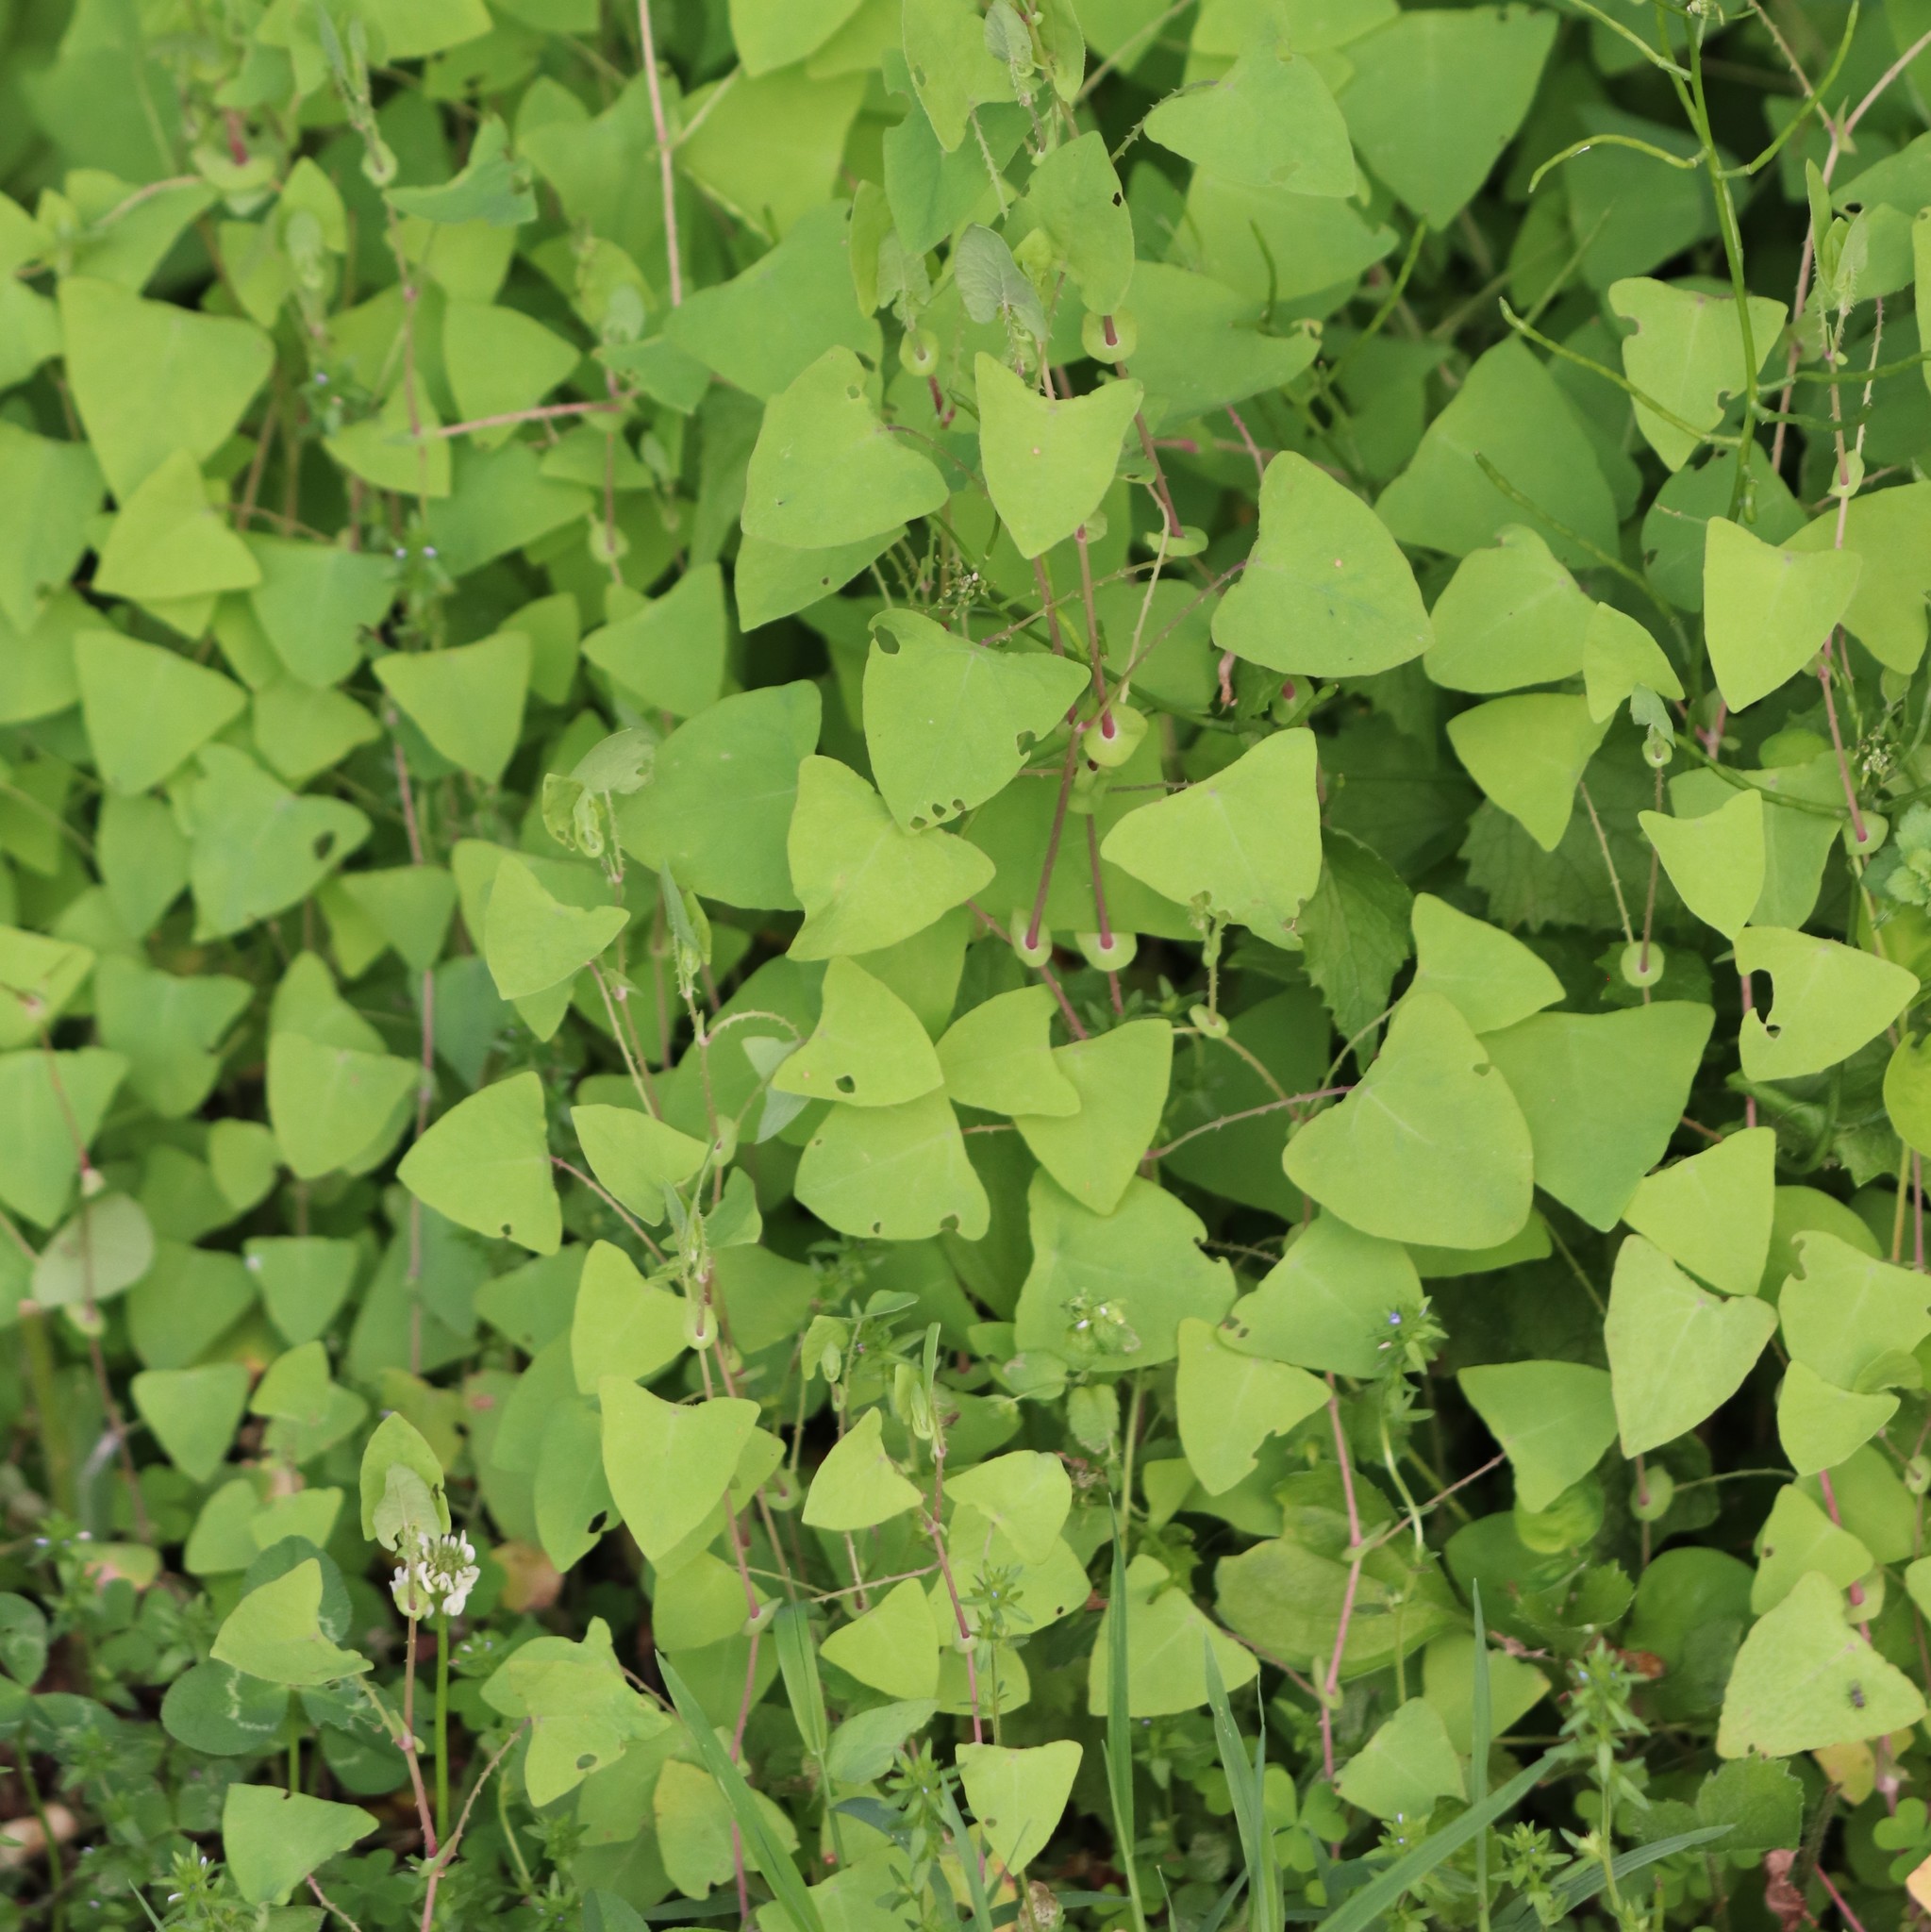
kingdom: Plantae
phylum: Tracheophyta
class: Magnoliopsida
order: Caryophyllales
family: Polygonaceae
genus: Persicaria
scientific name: Persicaria perfoliata
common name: Asiatic tearthumb
